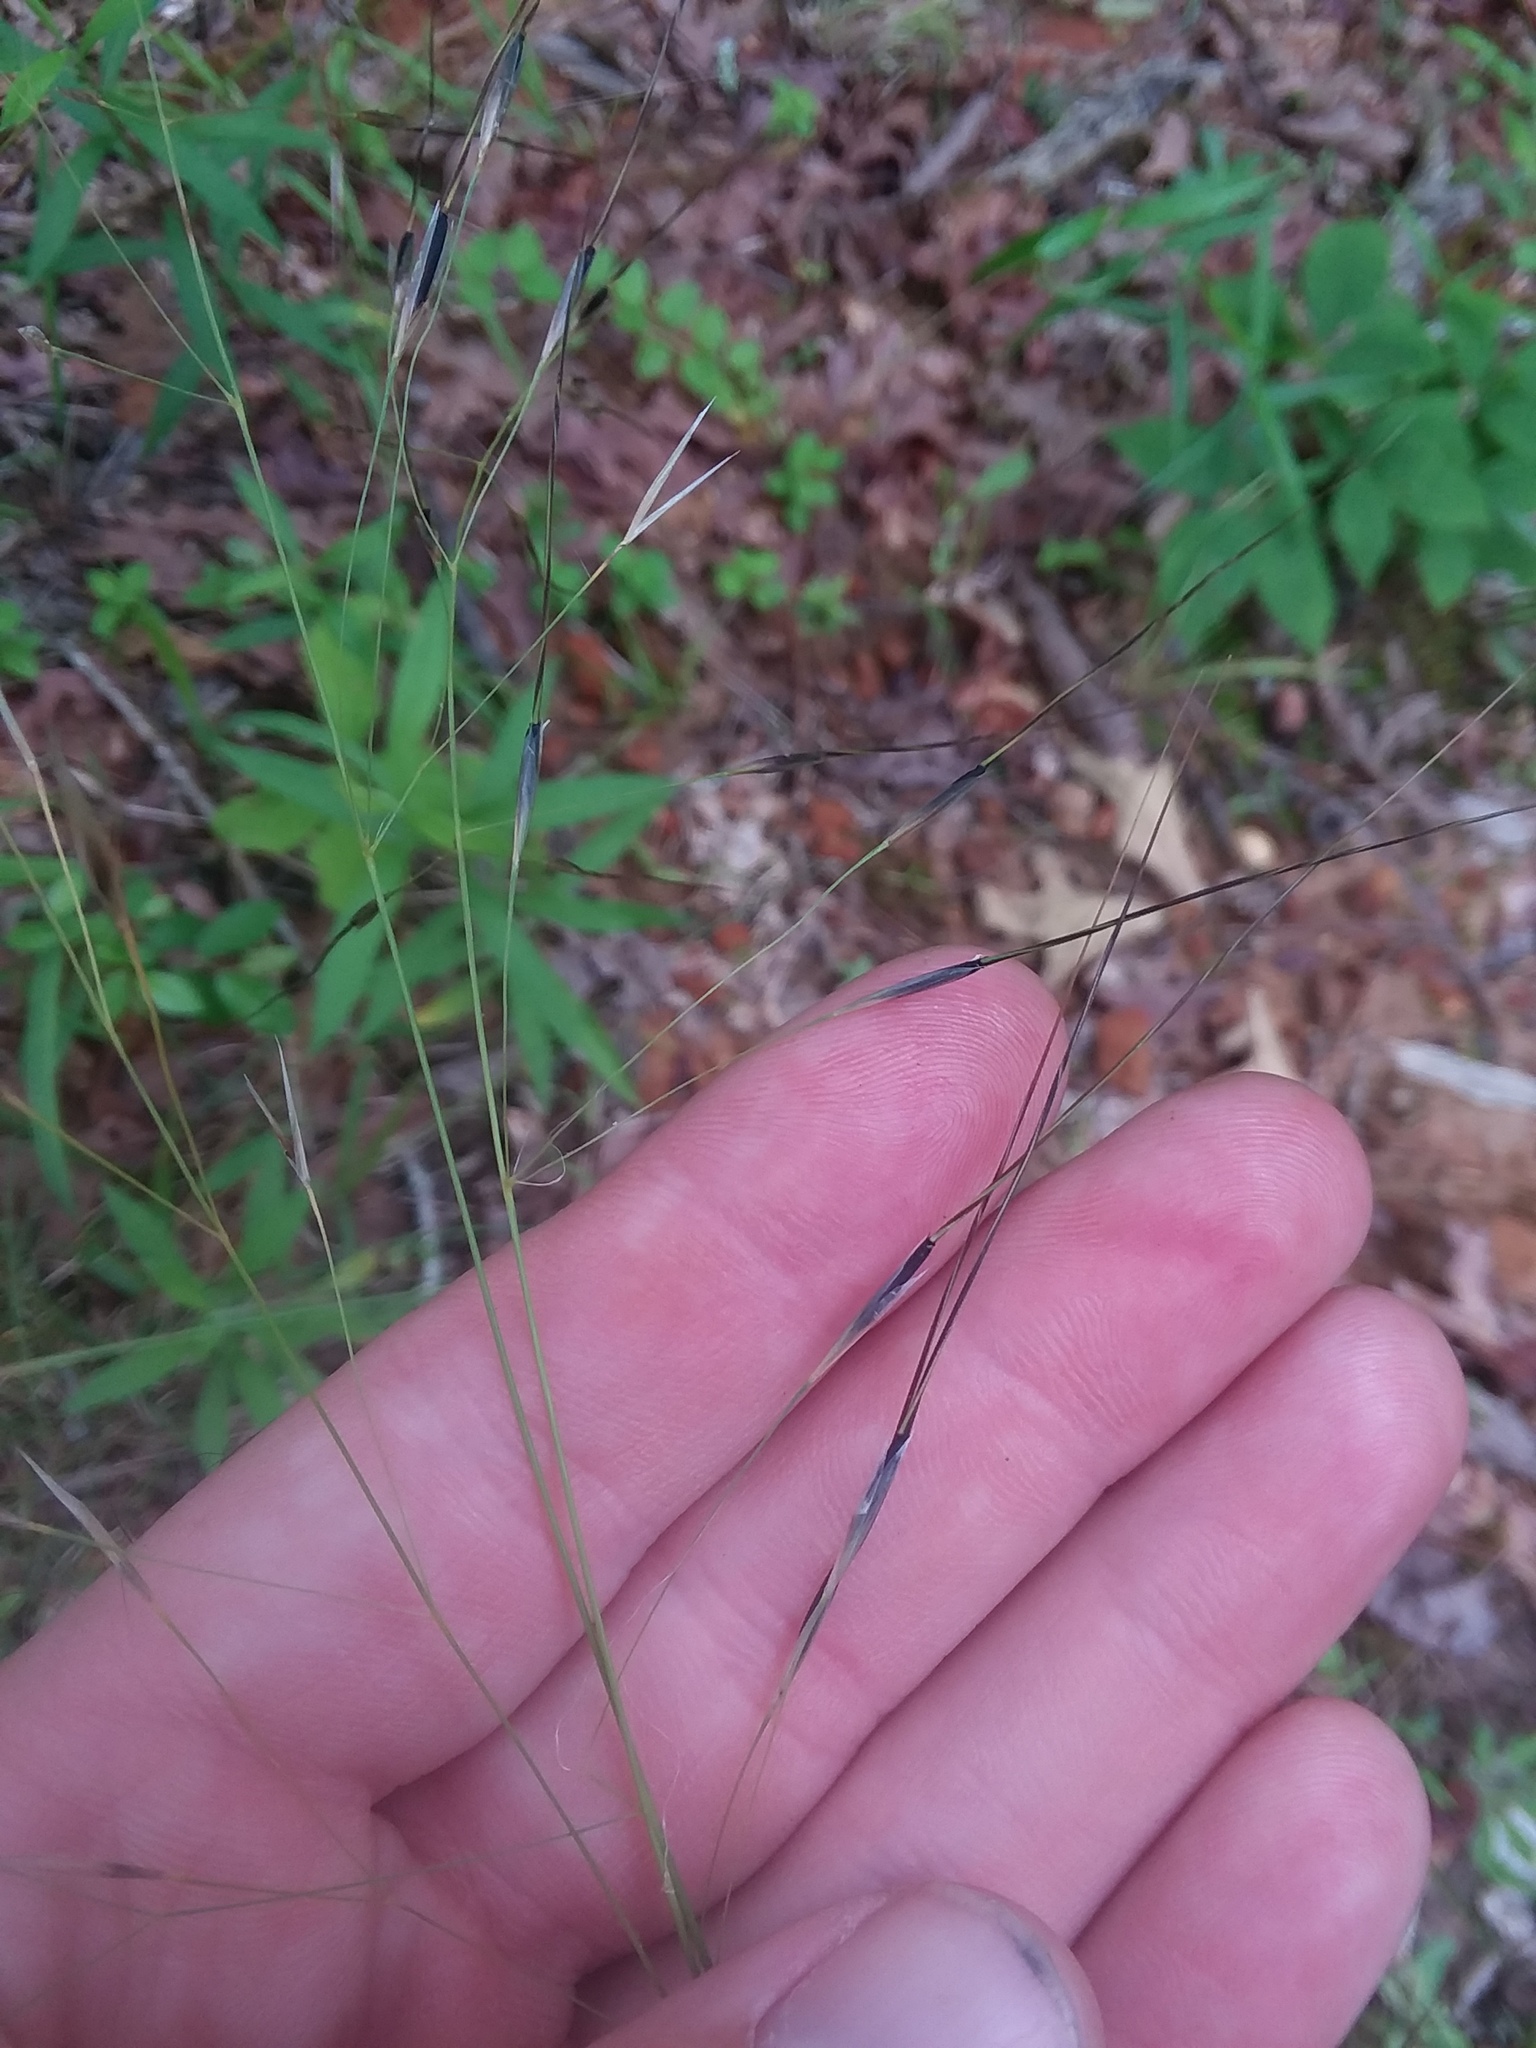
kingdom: Plantae
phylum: Tracheophyta
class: Liliopsida
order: Poales
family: Poaceae
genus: Piptochaetium
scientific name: Piptochaetium avenaceum
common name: Black bunchgrass
